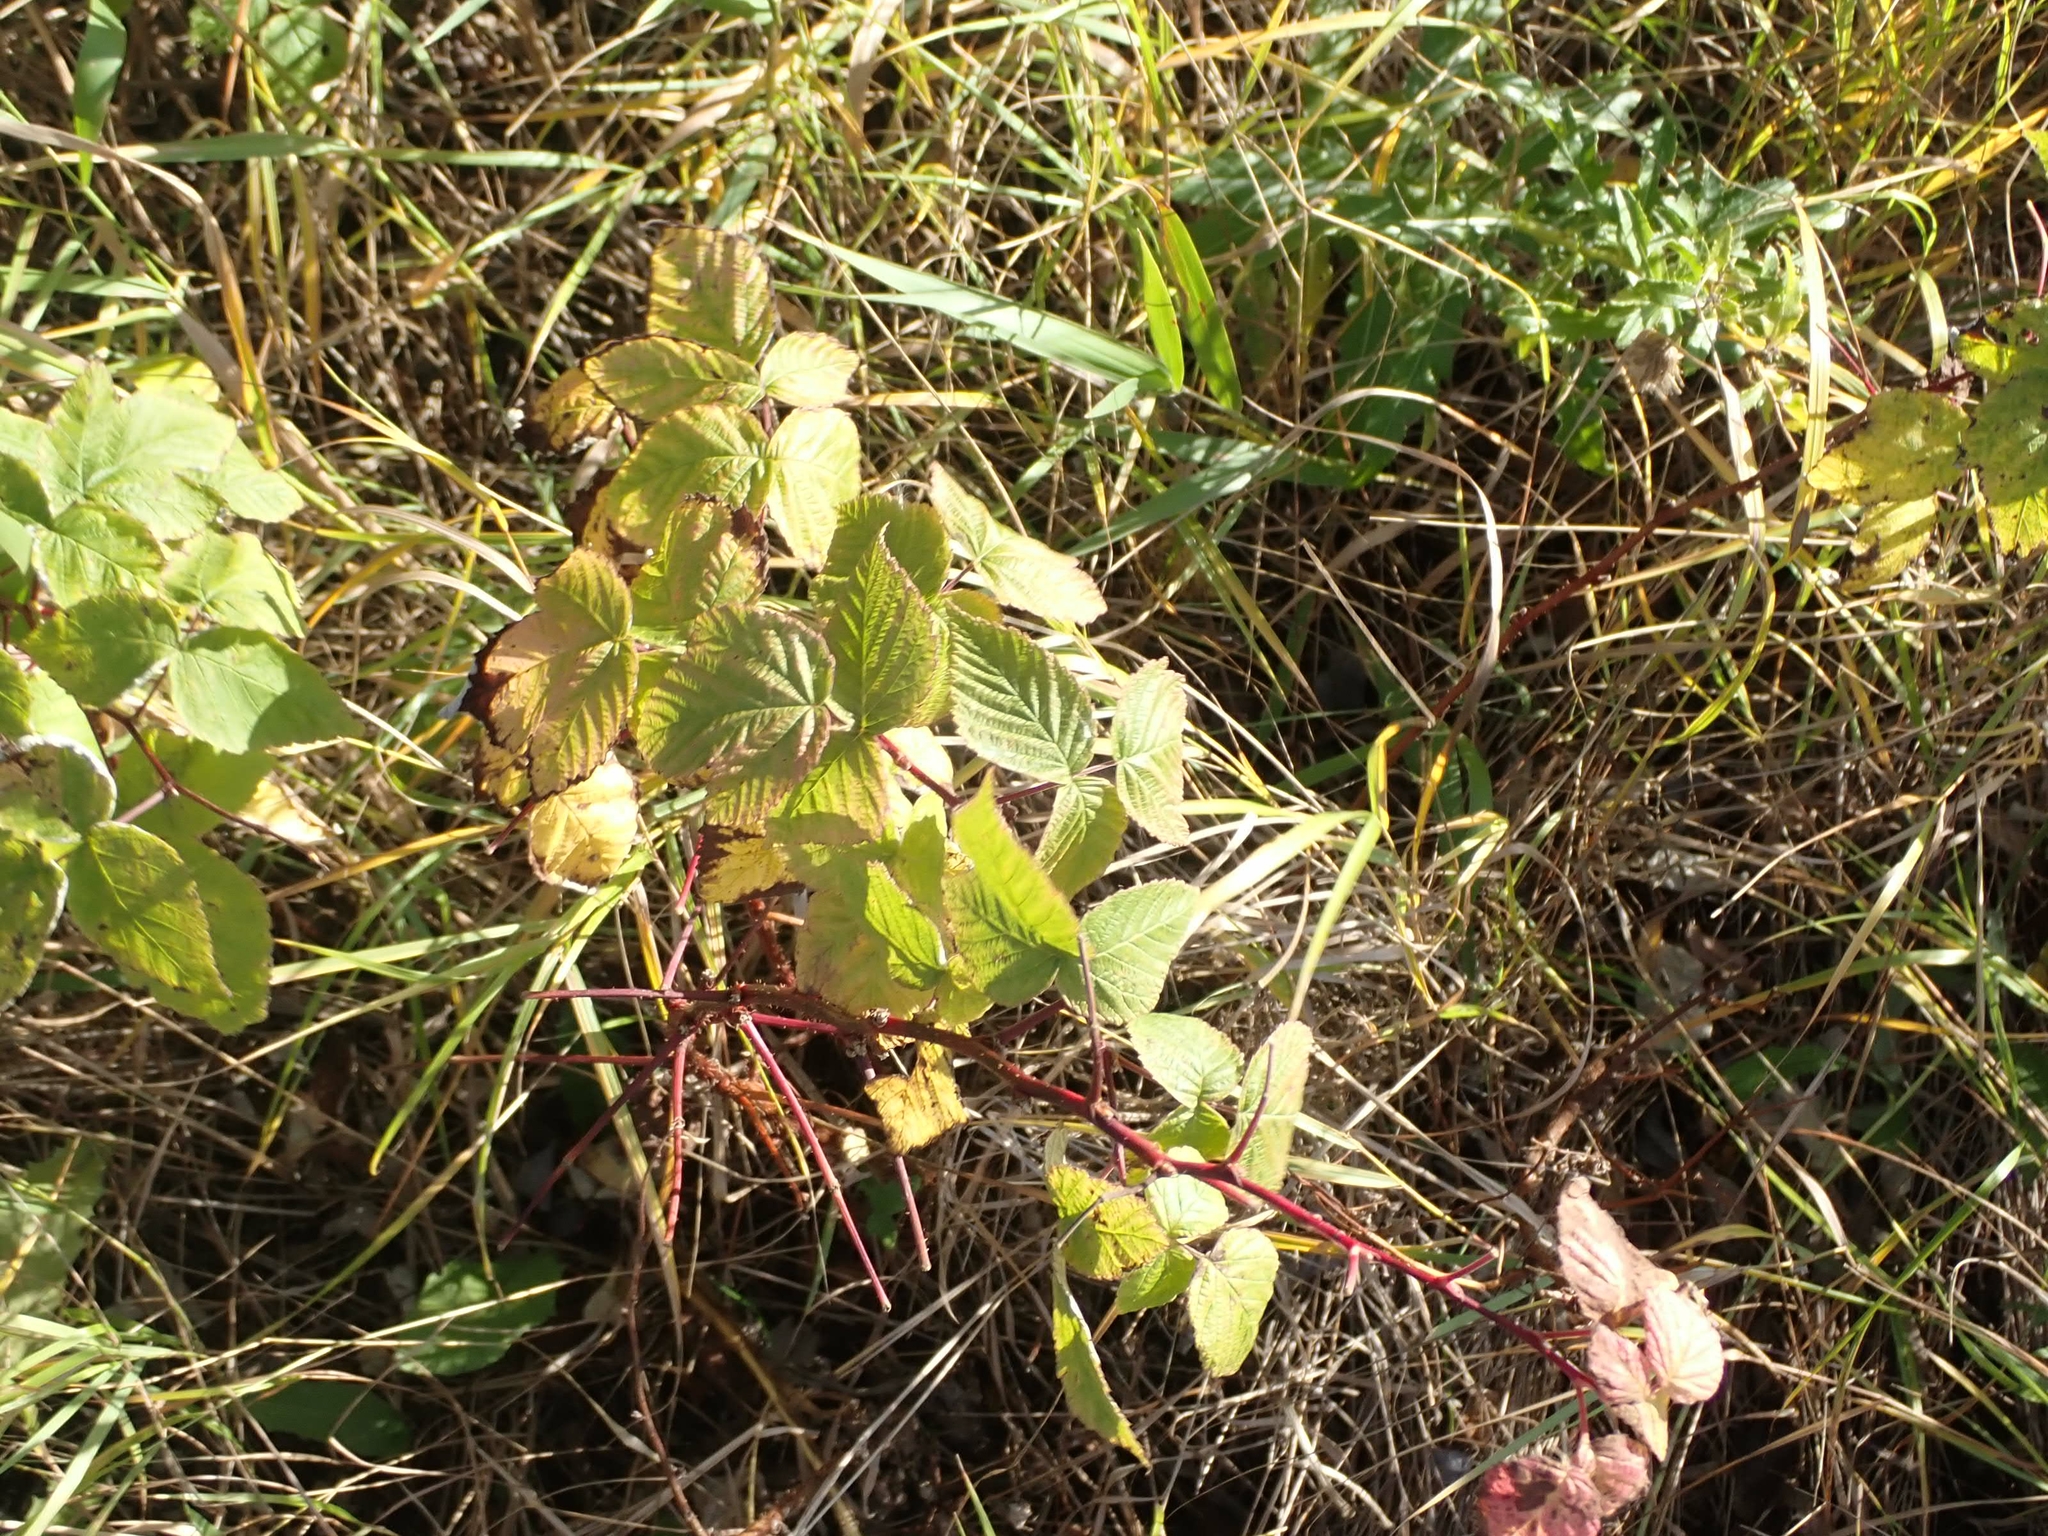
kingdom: Plantae
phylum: Tracheophyta
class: Magnoliopsida
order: Rosales
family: Rosaceae
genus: Rubus
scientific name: Rubus idaeus
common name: Raspberry
